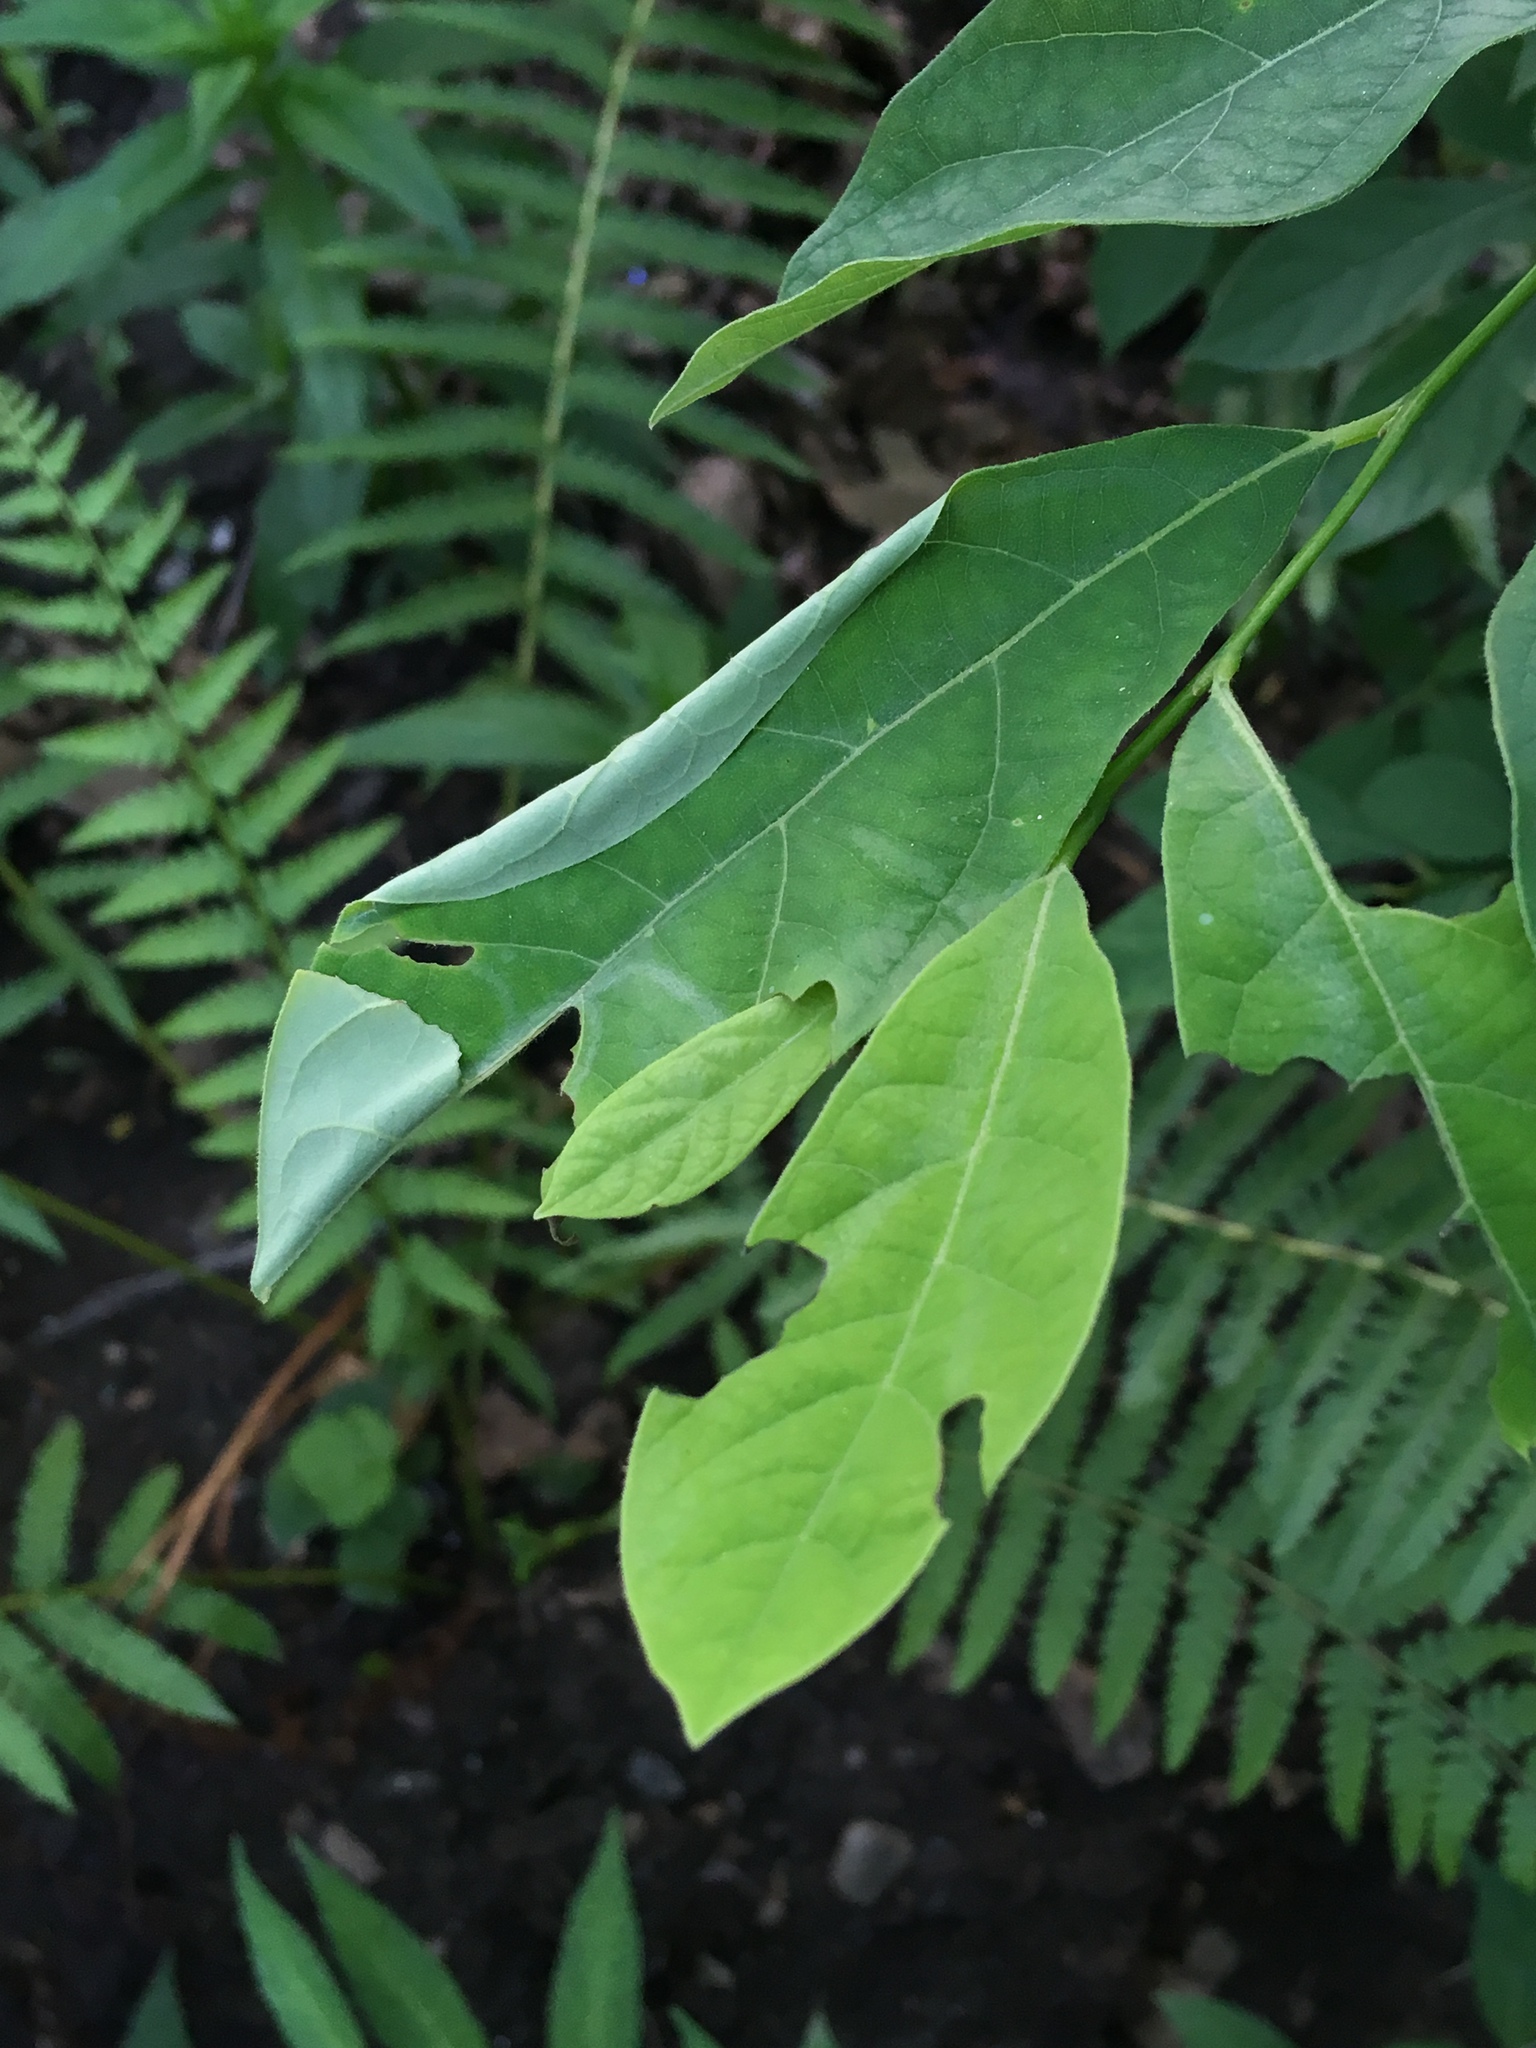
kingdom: Plantae
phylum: Tracheophyta
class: Magnoliopsida
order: Laurales
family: Lauraceae
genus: Lindera
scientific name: Lindera benzoin
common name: Spicebush
